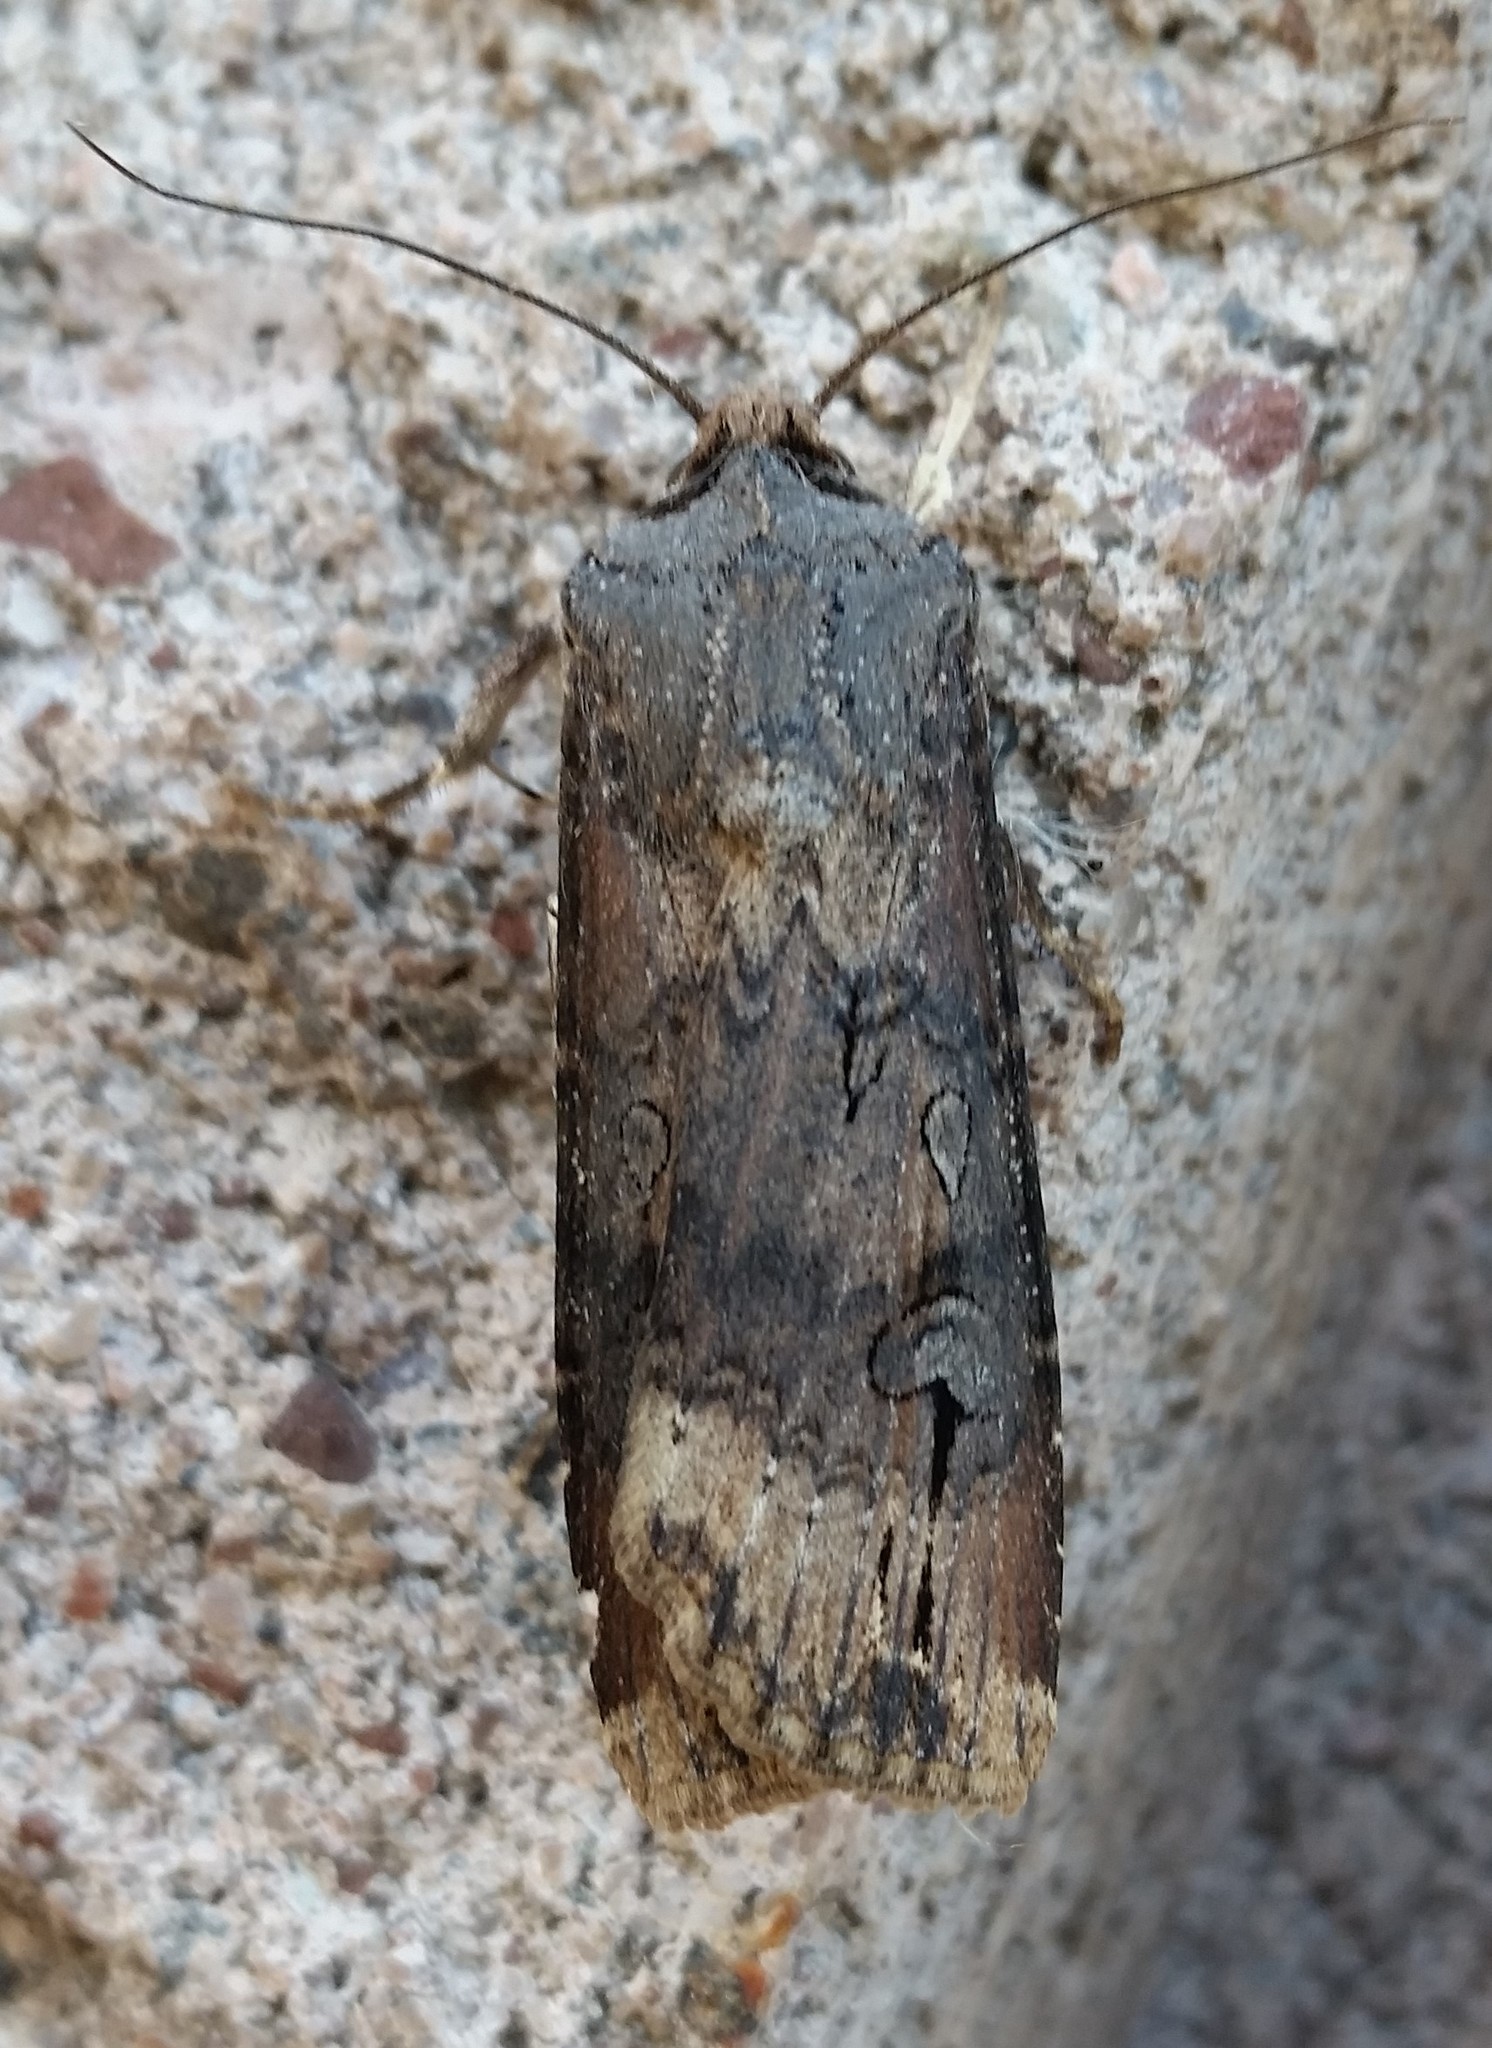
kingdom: Animalia
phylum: Arthropoda
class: Insecta
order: Lepidoptera
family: Noctuidae
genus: Agrotis
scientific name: Agrotis ipsilon
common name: Dark sword-grass
